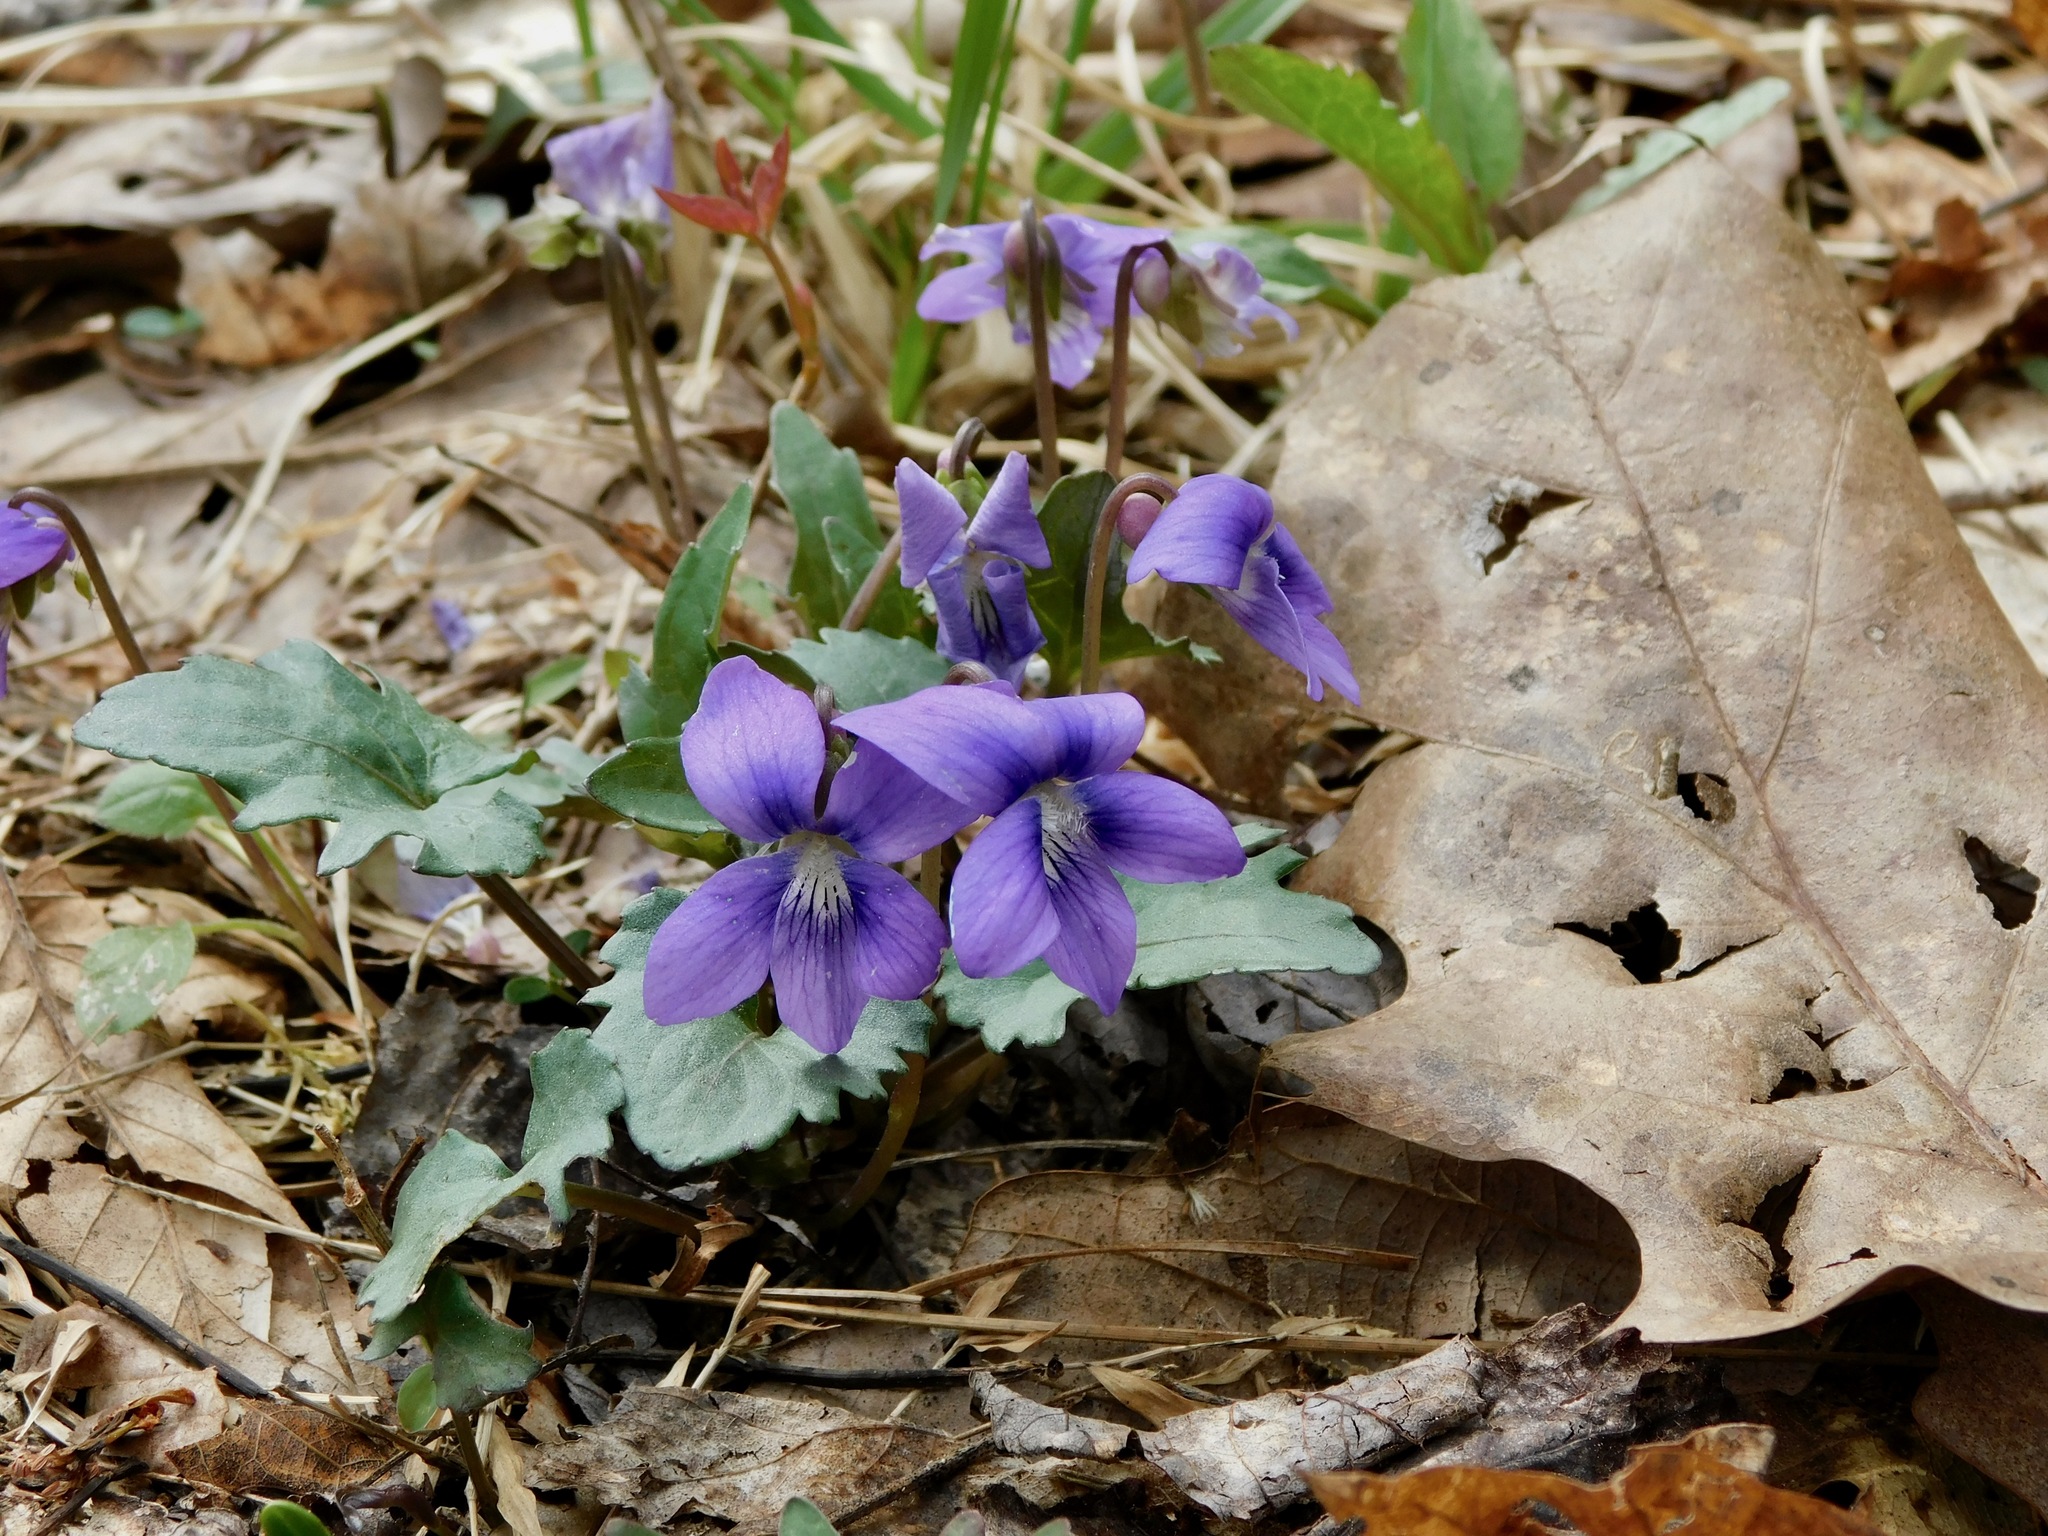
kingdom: Plantae
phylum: Tracheophyta
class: Magnoliopsida
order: Malpighiales
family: Violaceae
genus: Viola
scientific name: Viola palmata
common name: Early blue violet
